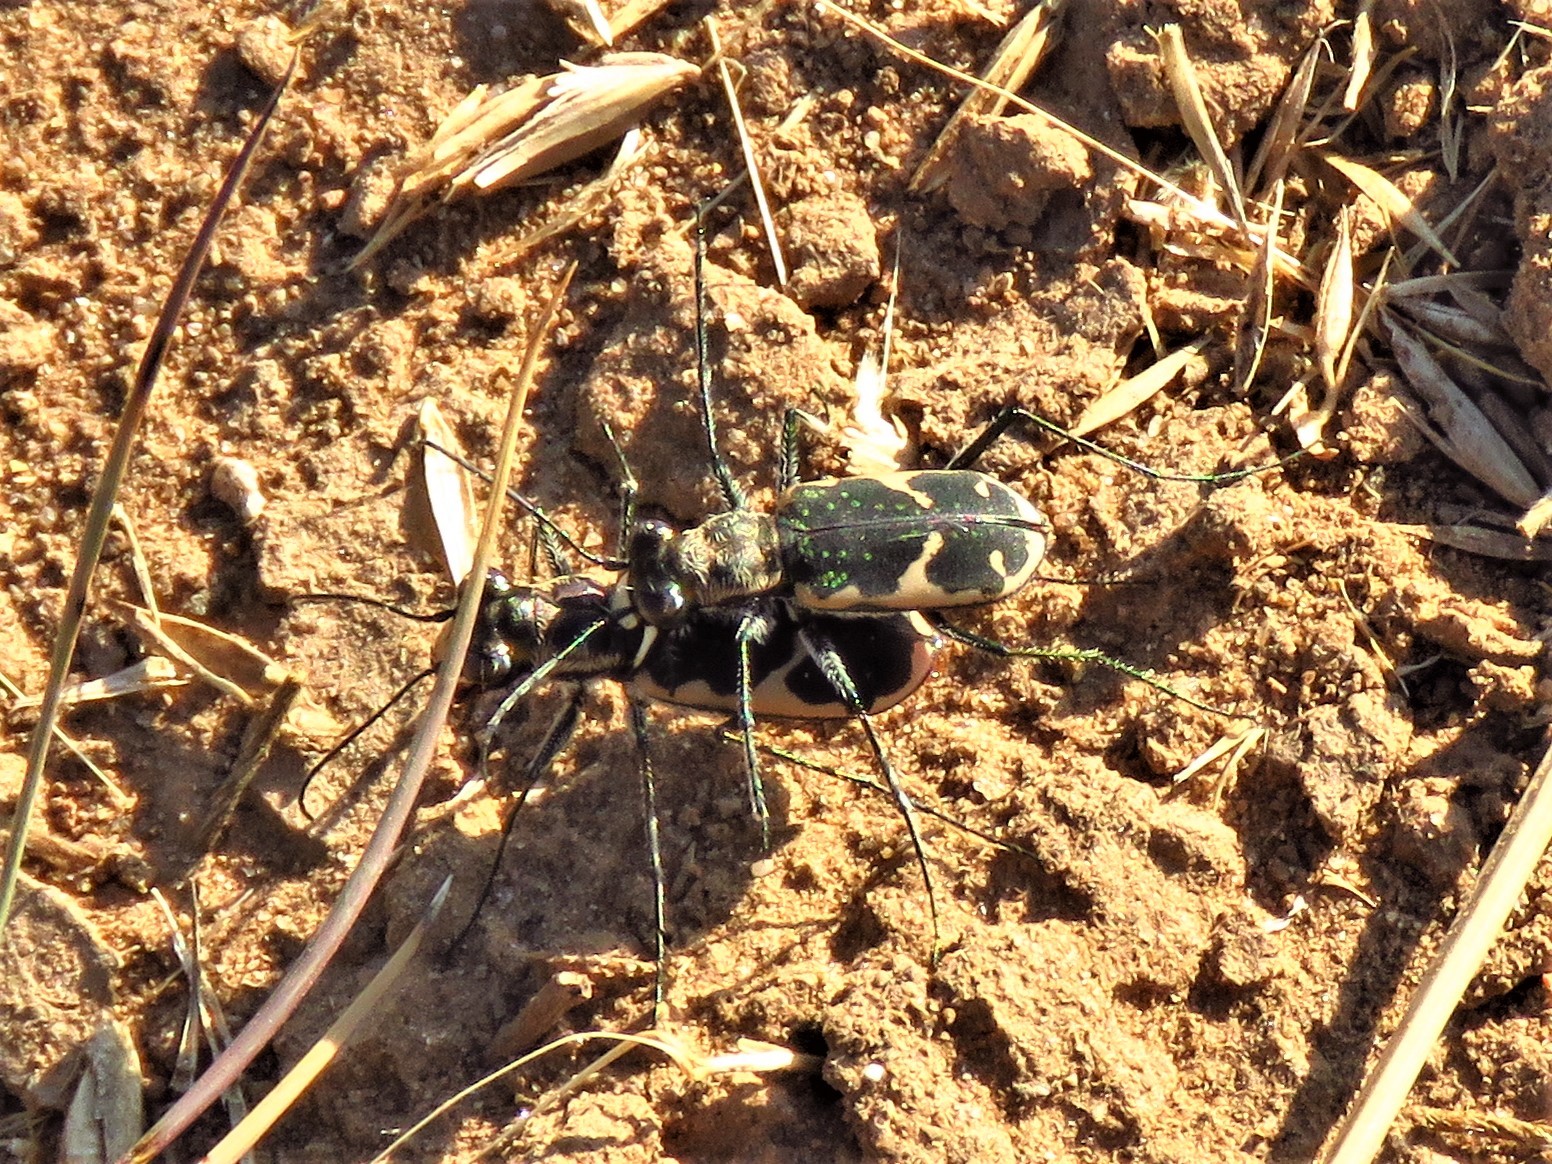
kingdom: Animalia
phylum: Arthropoda
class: Insecta
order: Coleoptera
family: Carabidae
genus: Cicindela
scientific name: Cicindela schauppii
